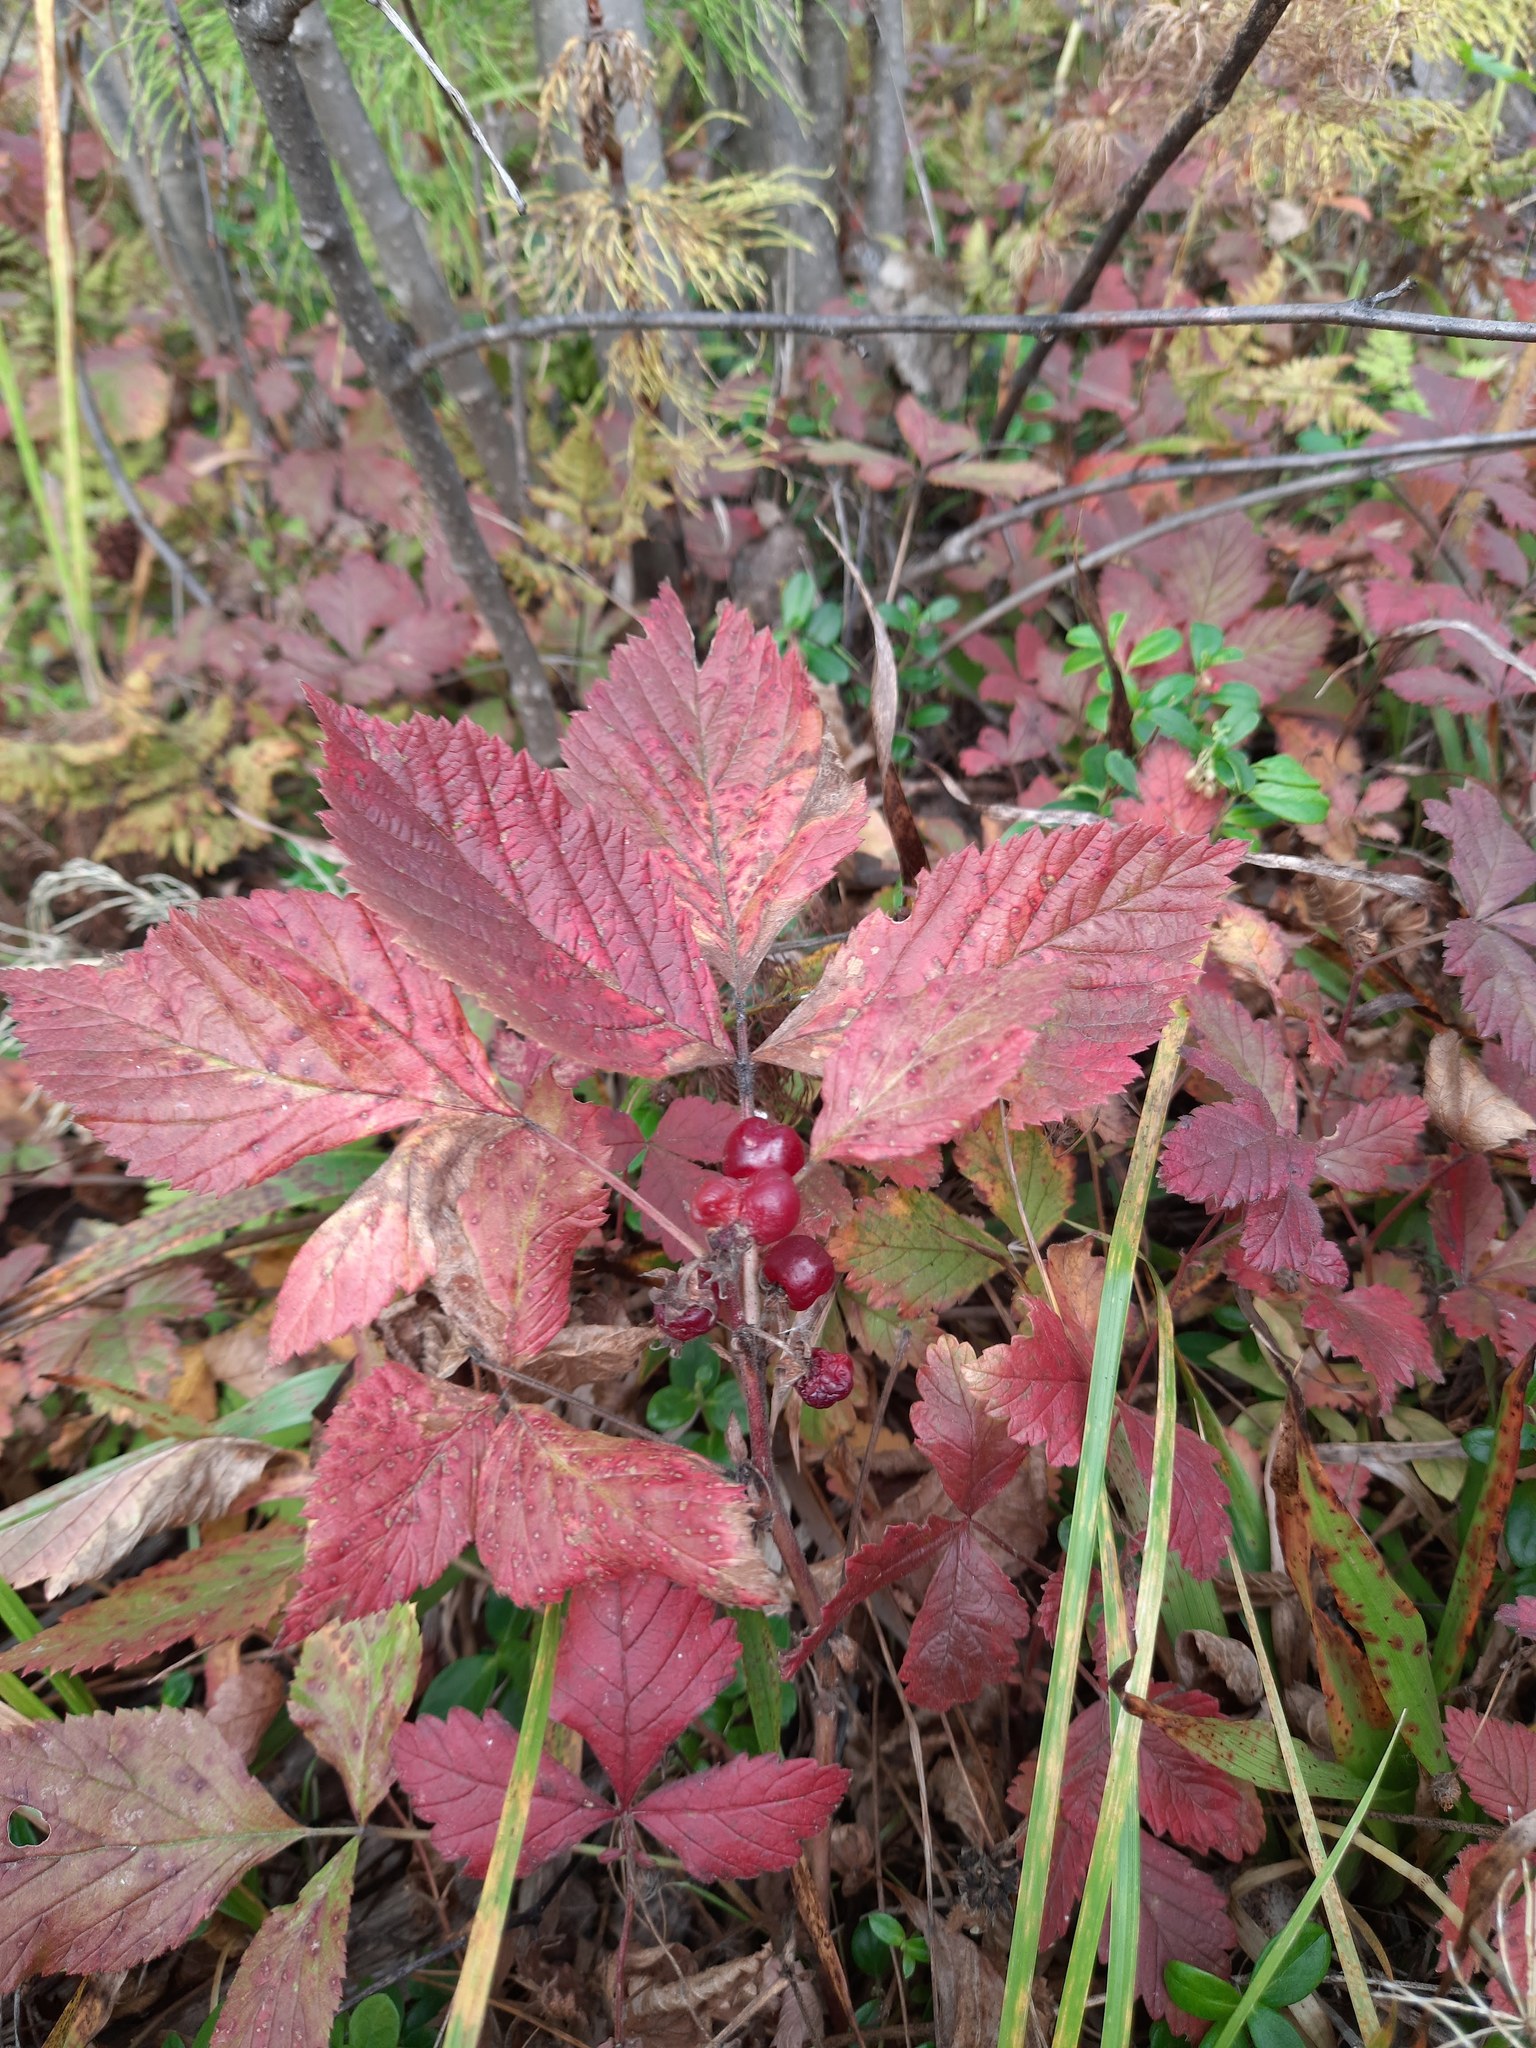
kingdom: Plantae
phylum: Tracheophyta
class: Magnoliopsida
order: Rosales
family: Rosaceae
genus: Rubus
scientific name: Rubus saxatilis
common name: Stone bramble
